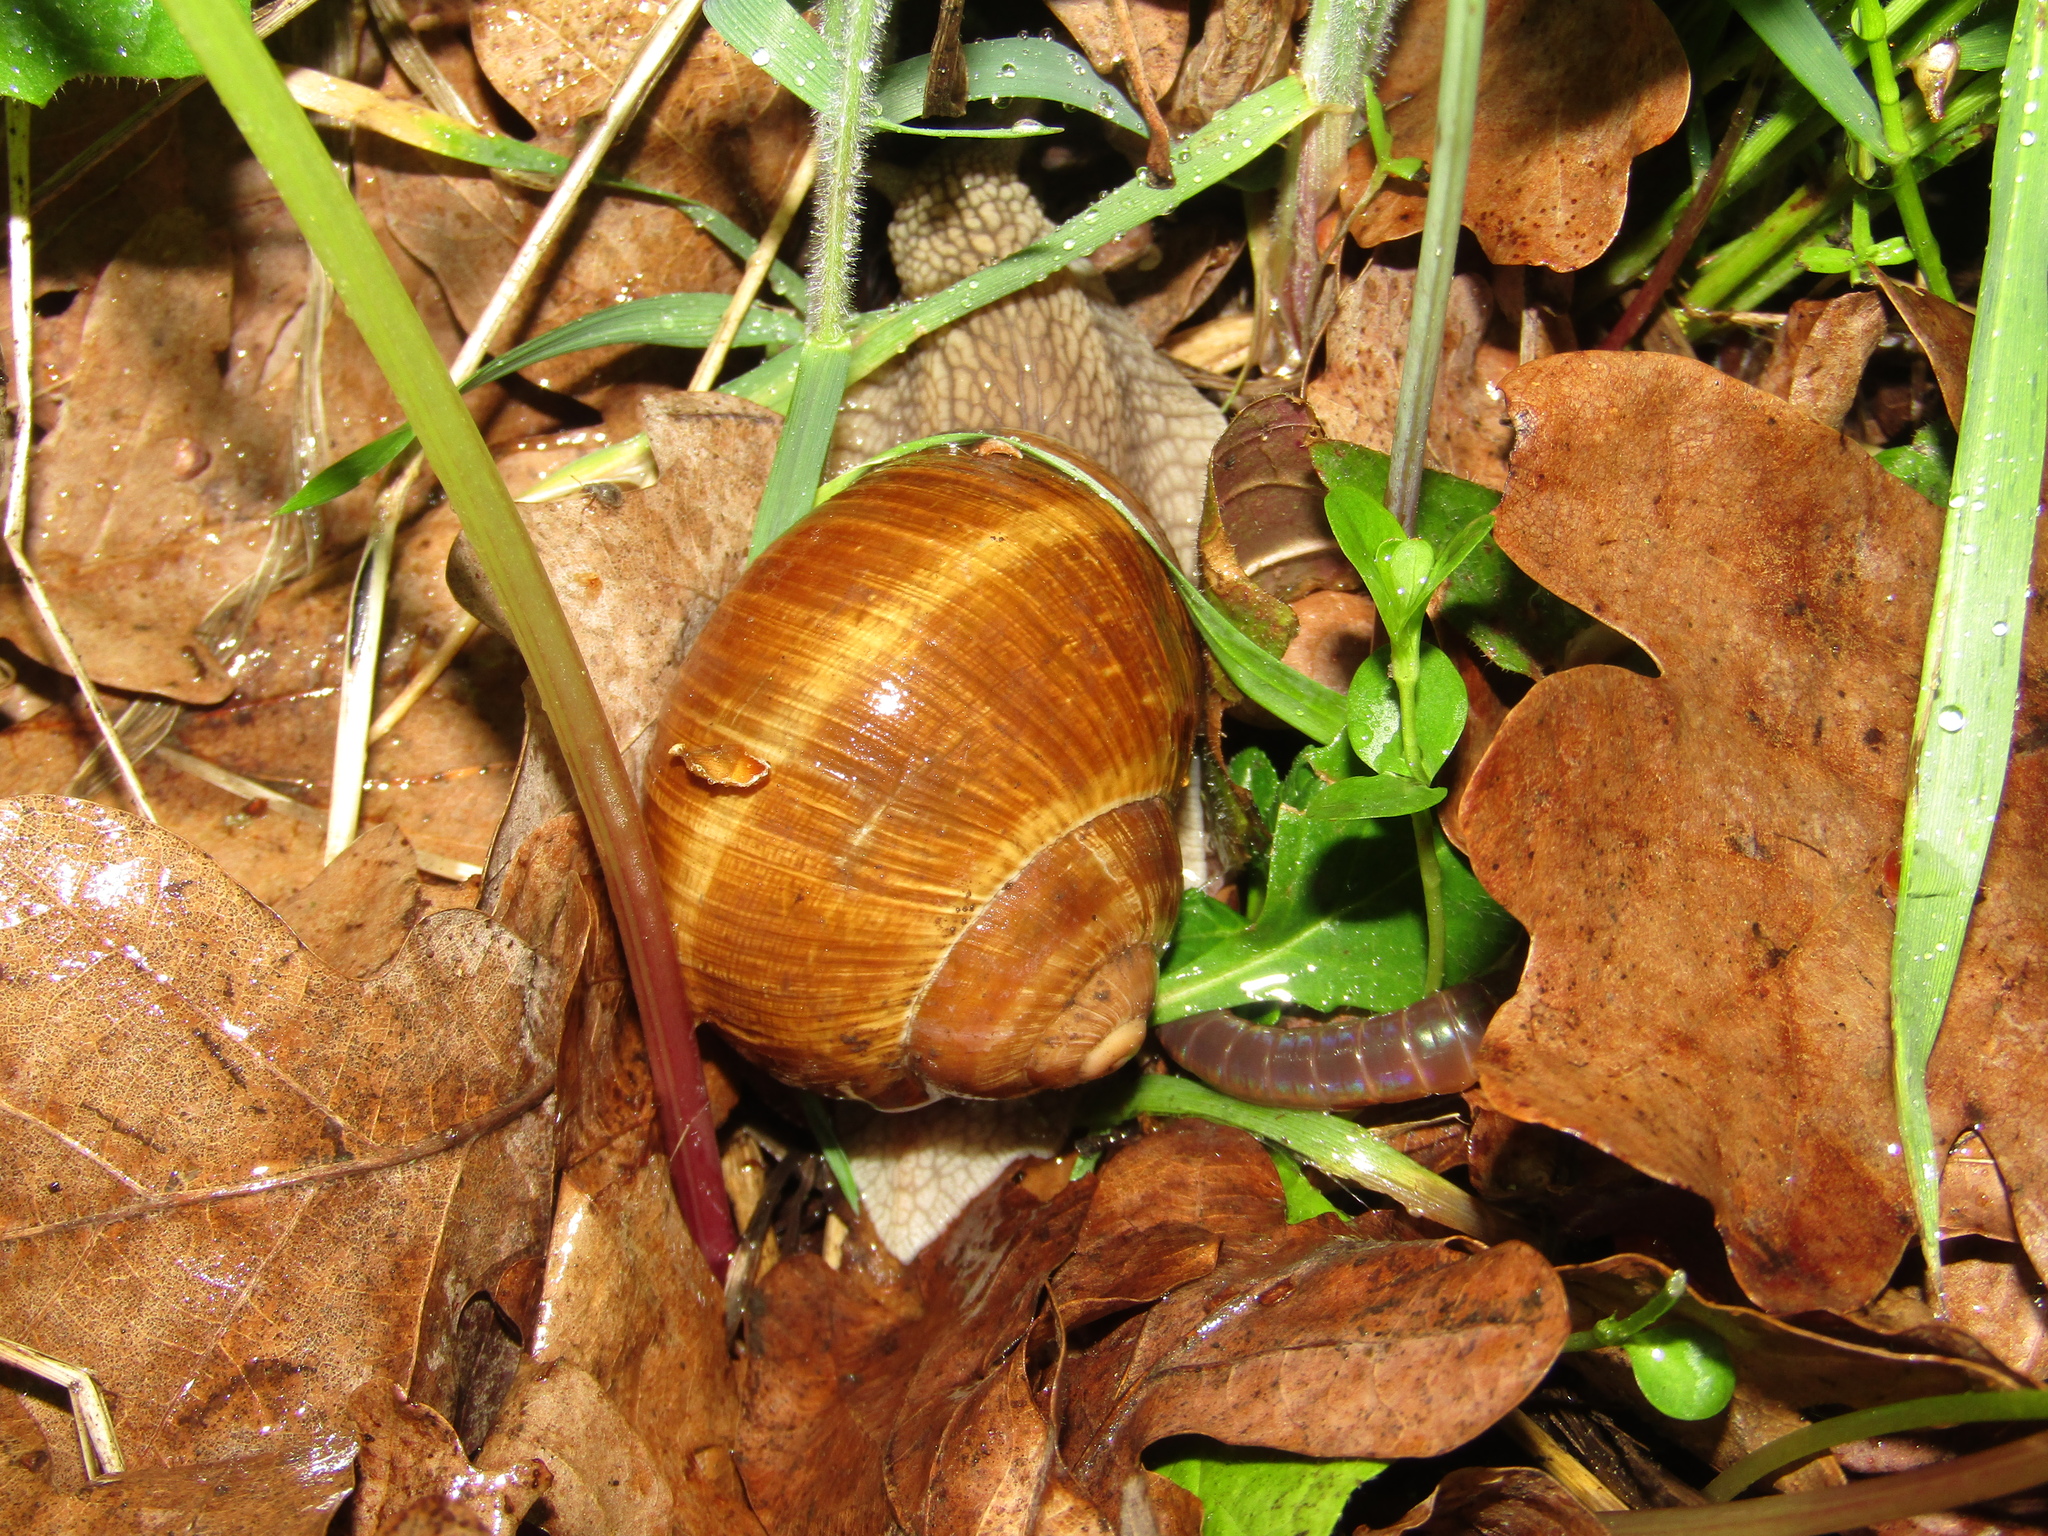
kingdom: Animalia
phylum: Mollusca
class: Gastropoda
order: Stylommatophora
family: Helicidae
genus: Helix
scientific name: Helix pomatia
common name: Roman snail
